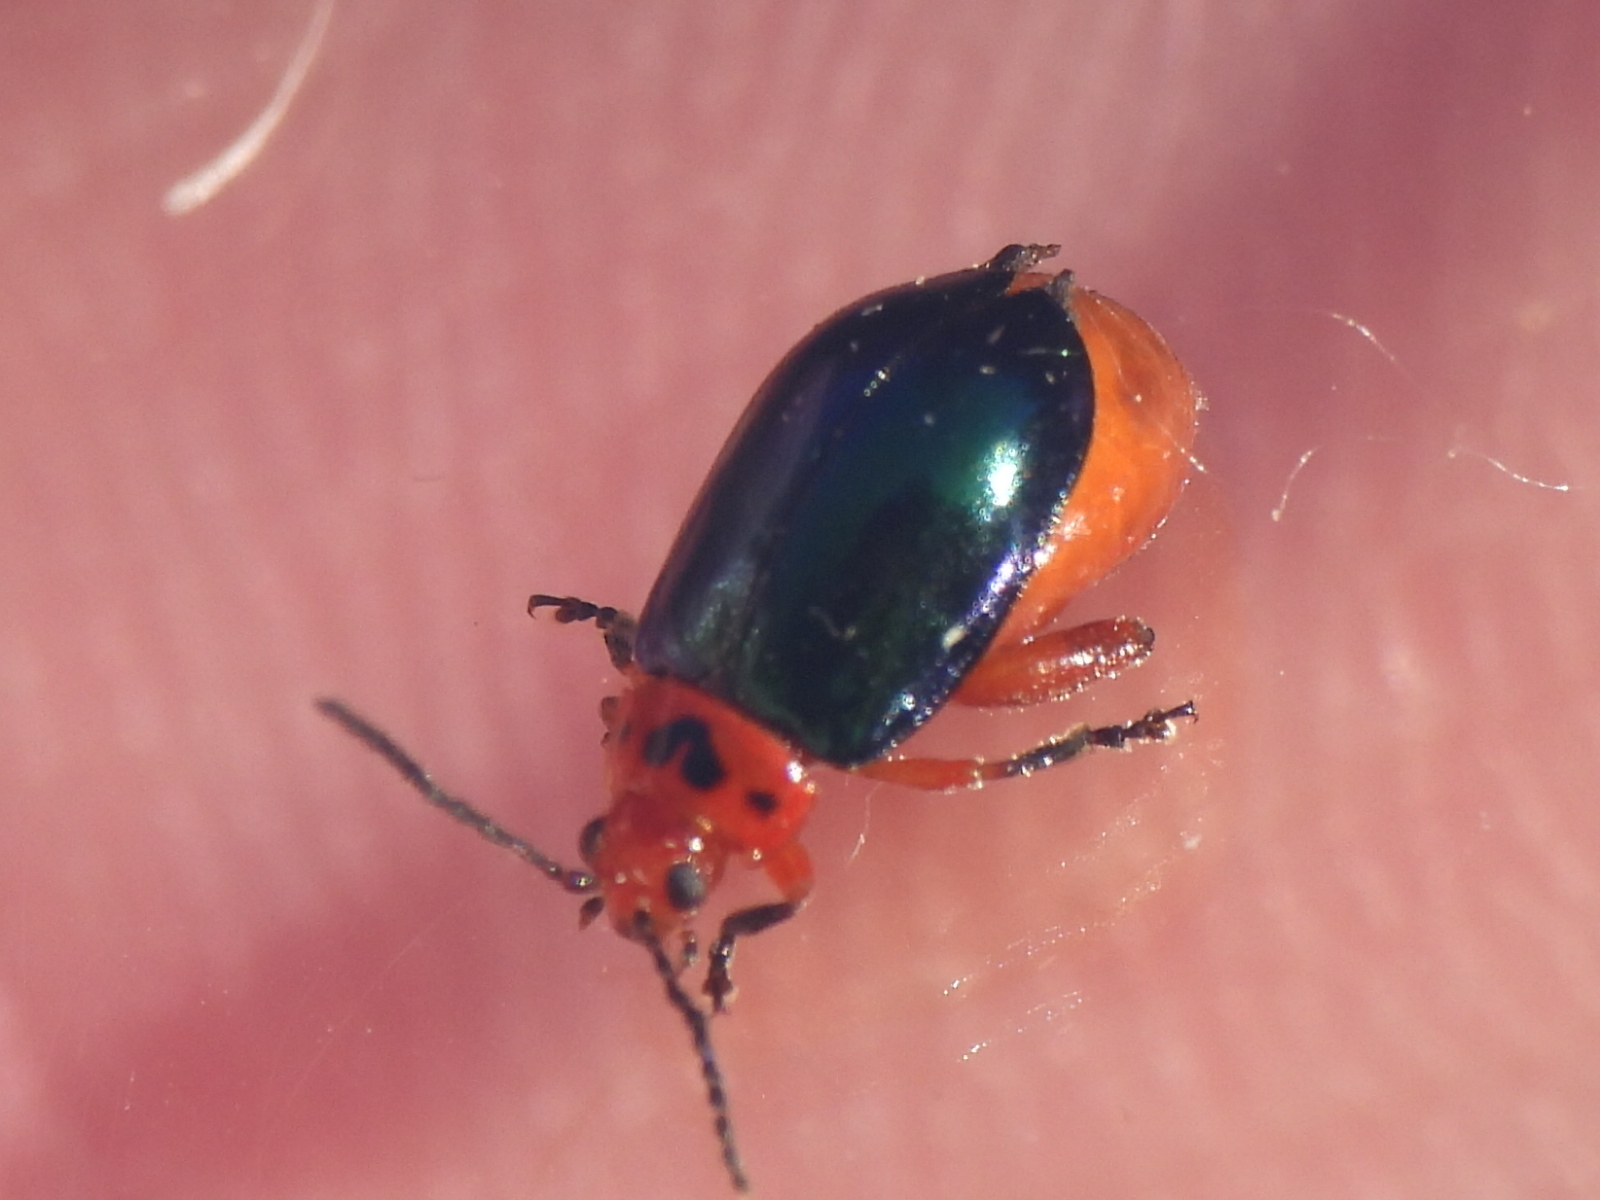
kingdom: Animalia
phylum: Arthropoda
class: Insecta
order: Coleoptera
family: Chrysomelidae
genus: Kuschelina
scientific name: Kuschelina gibbitarsa
